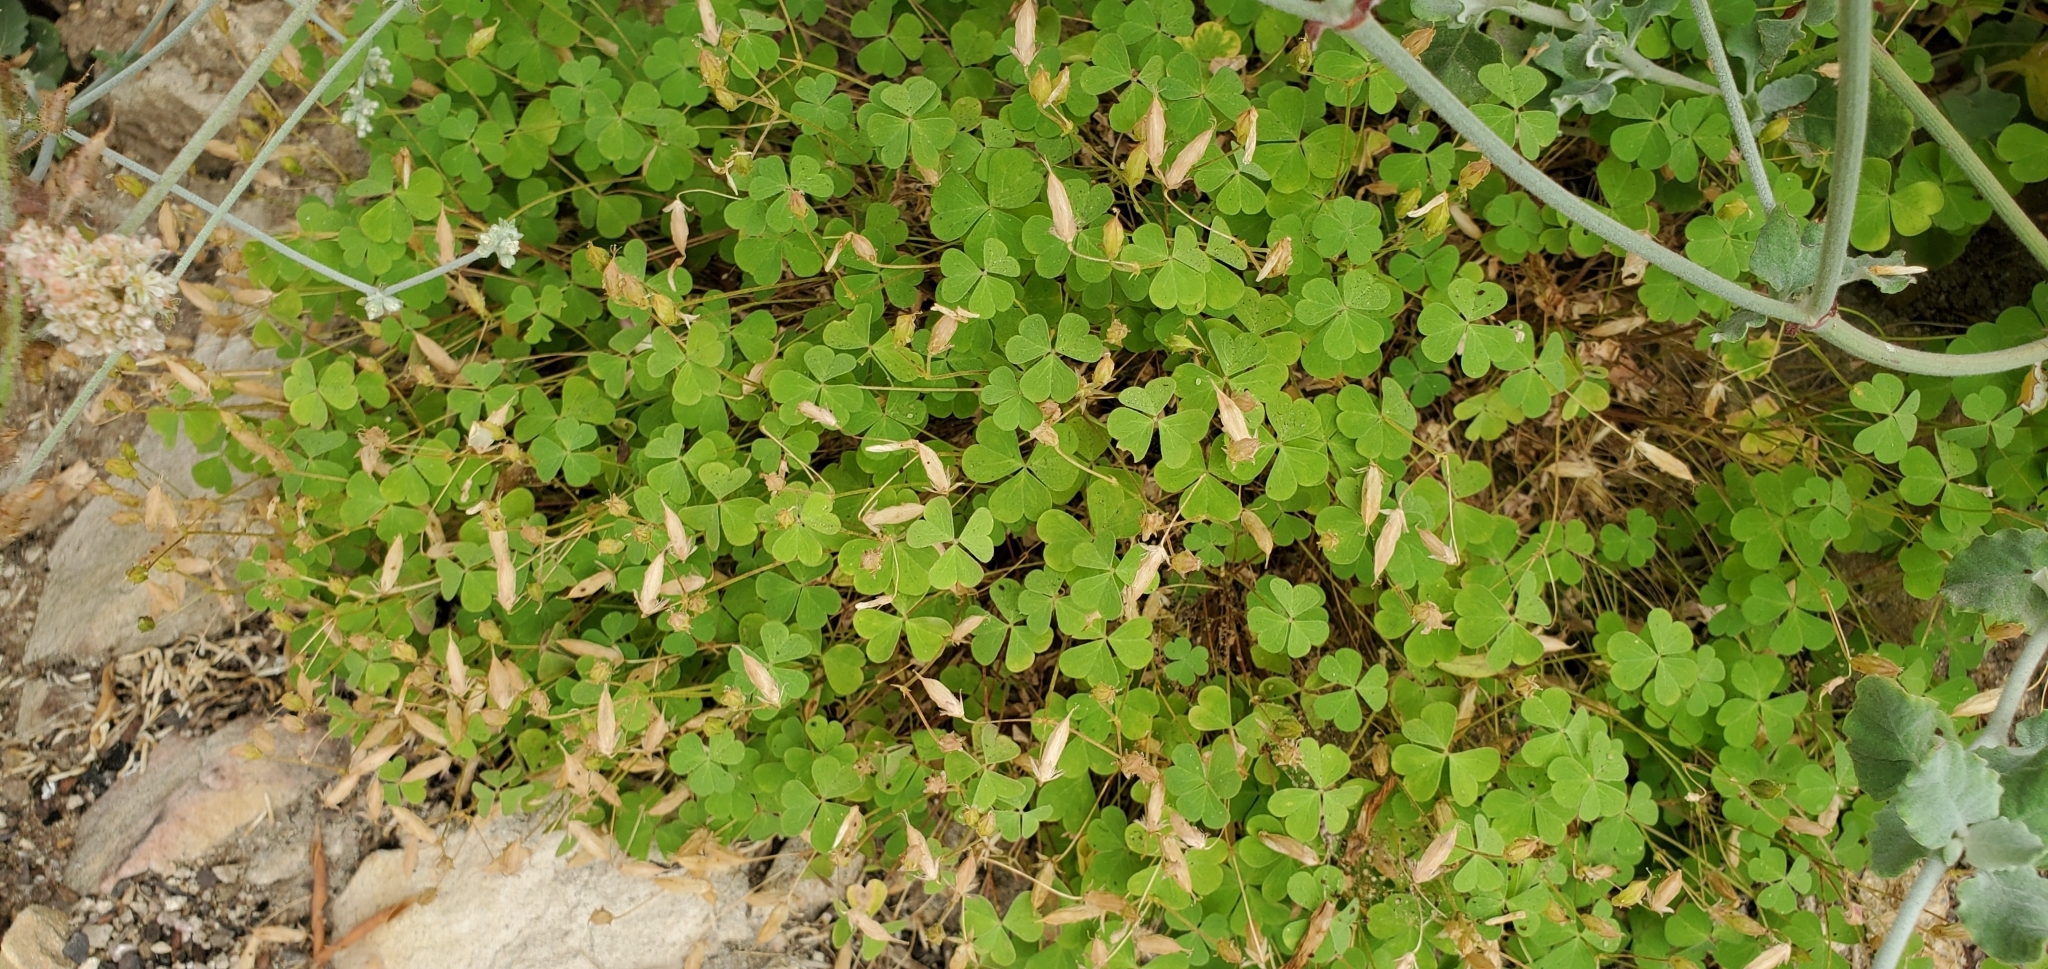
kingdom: Plantae
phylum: Tracheophyta
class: Magnoliopsida
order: Oxalidales
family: Oxalidaceae
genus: Oxalis
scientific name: Oxalis californica
